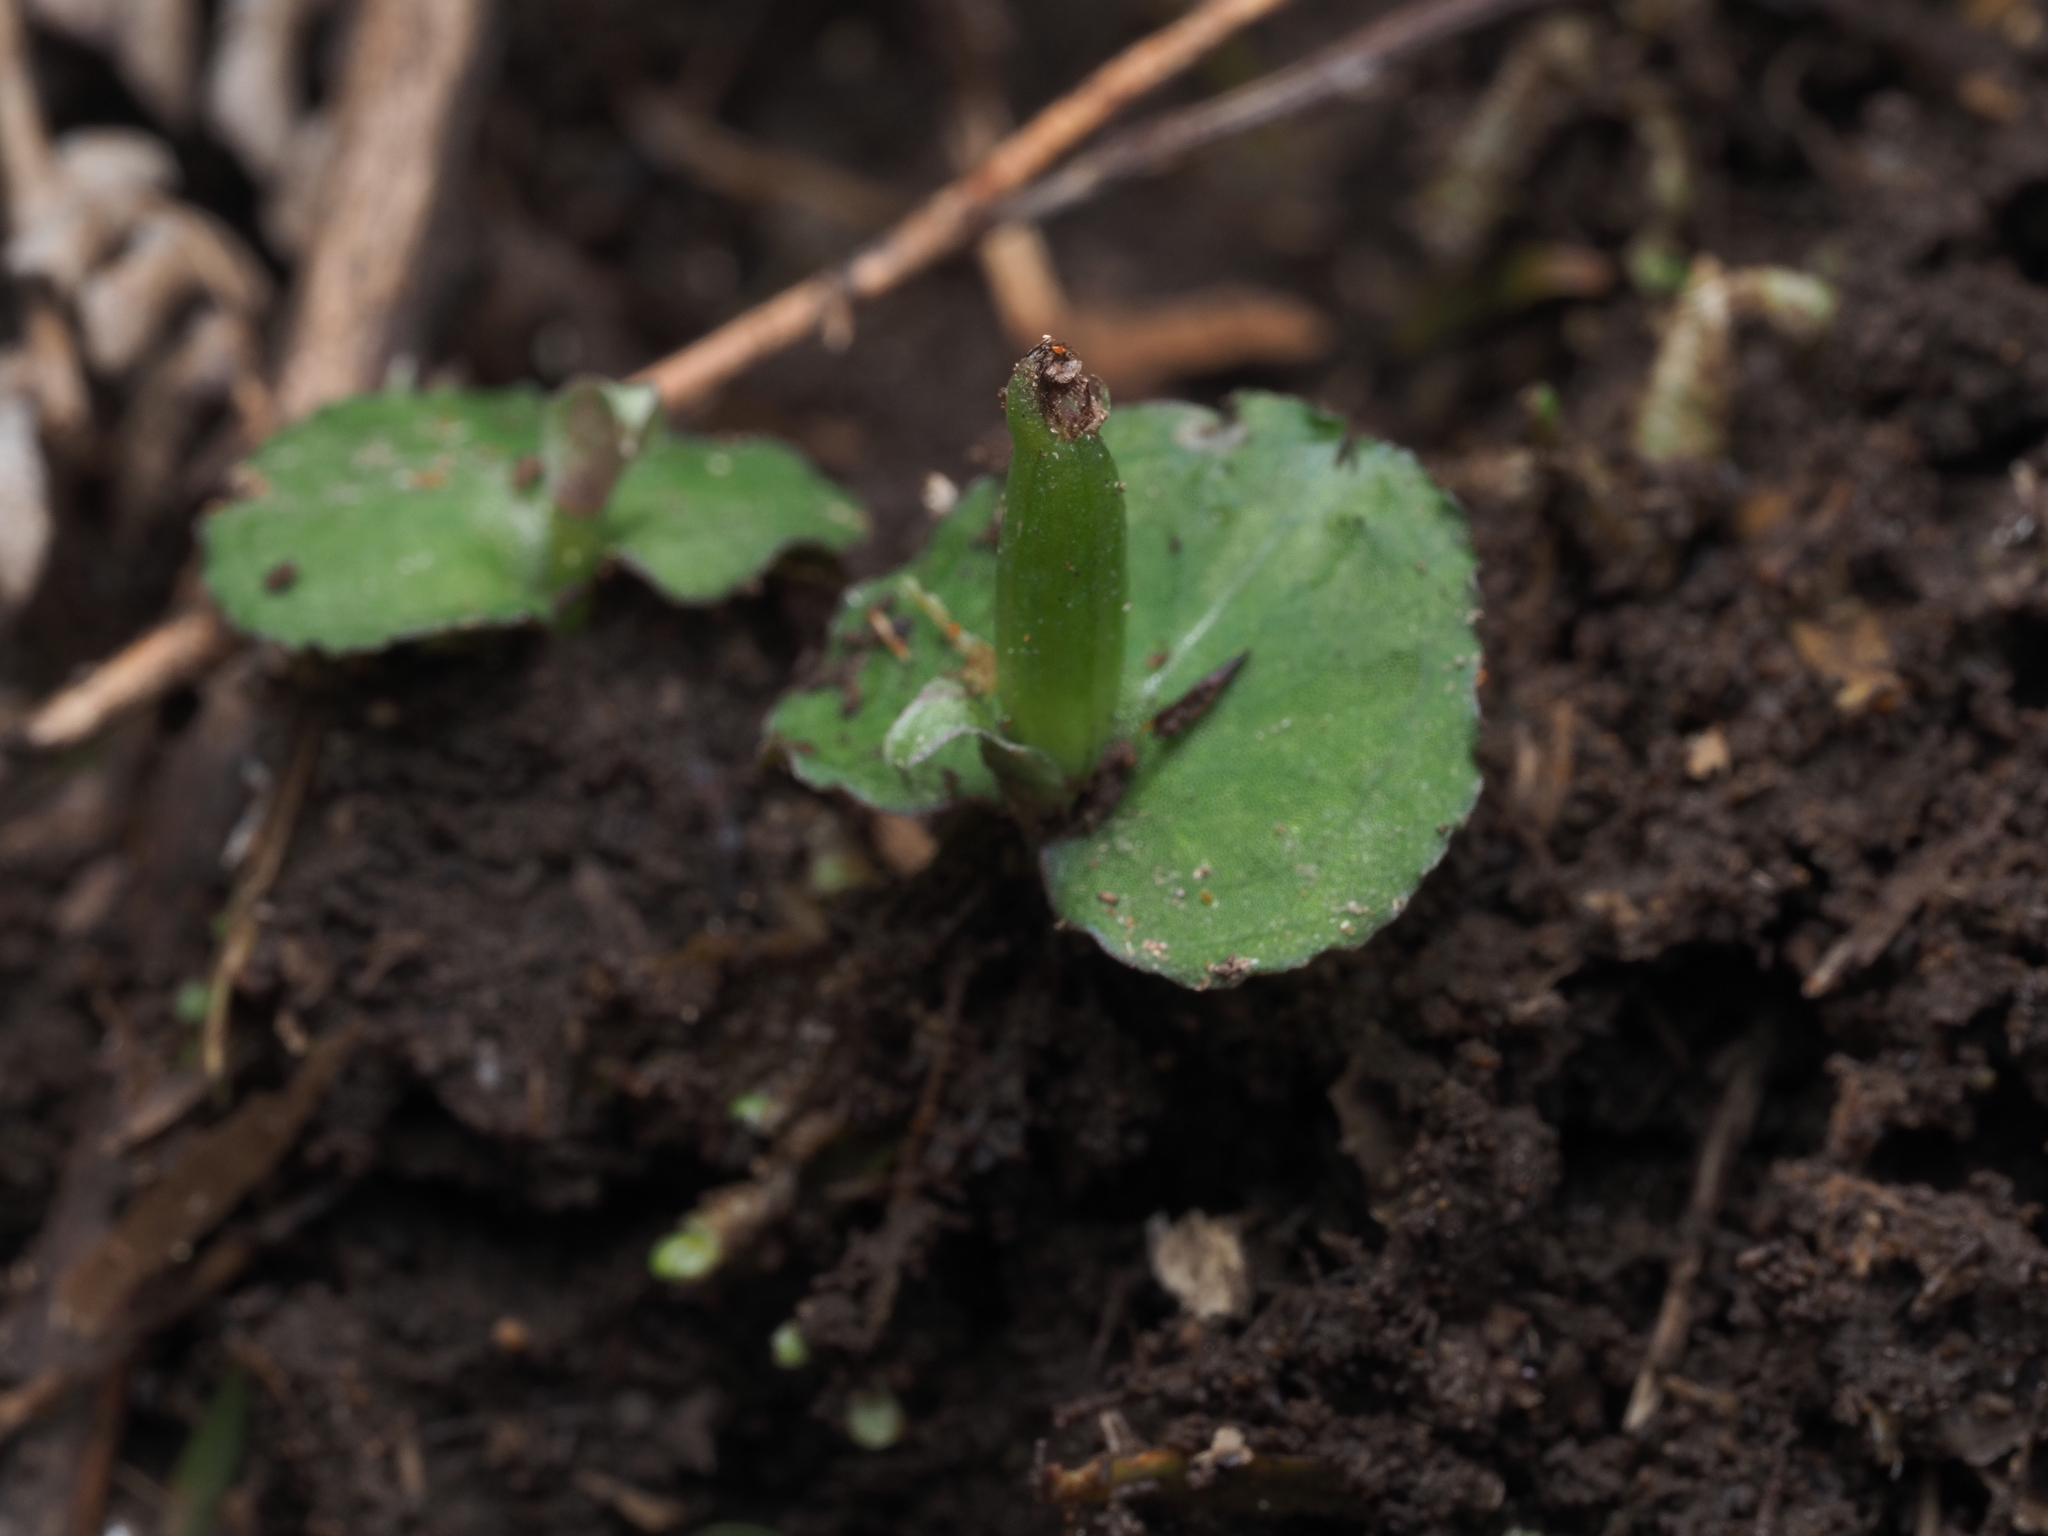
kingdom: Plantae
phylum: Tracheophyta
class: Liliopsida
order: Asparagales
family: Orchidaceae
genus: Corybas
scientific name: Corybas cheesemanii
